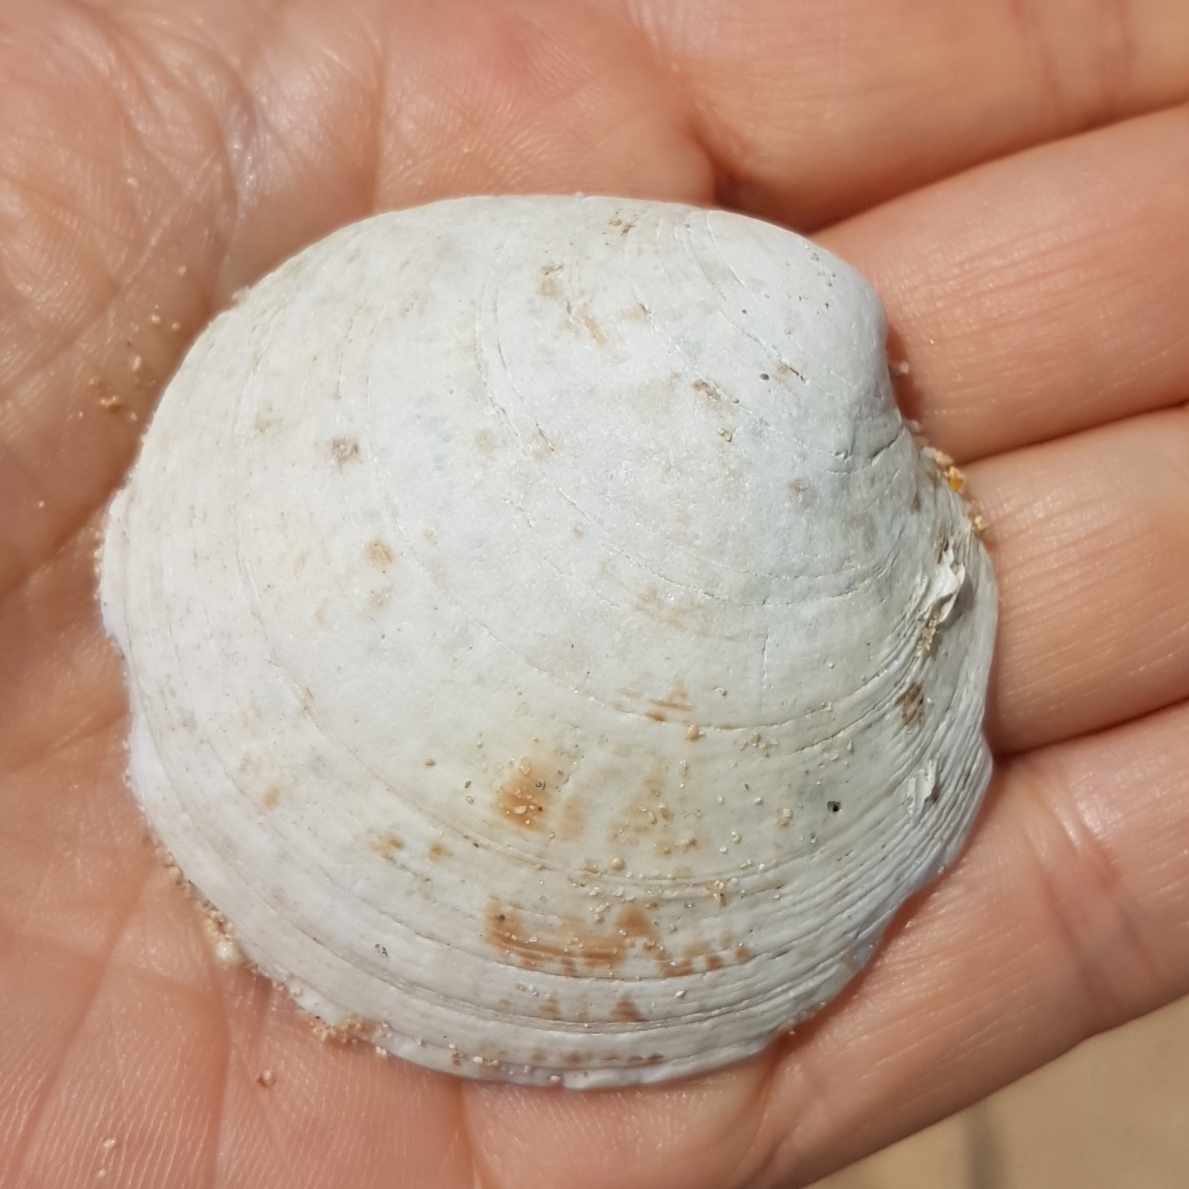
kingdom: Animalia
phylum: Mollusca
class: Bivalvia
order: Venerida
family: Veneridae
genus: Dosinia
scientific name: Dosinia exoleta
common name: Rayed artemis
